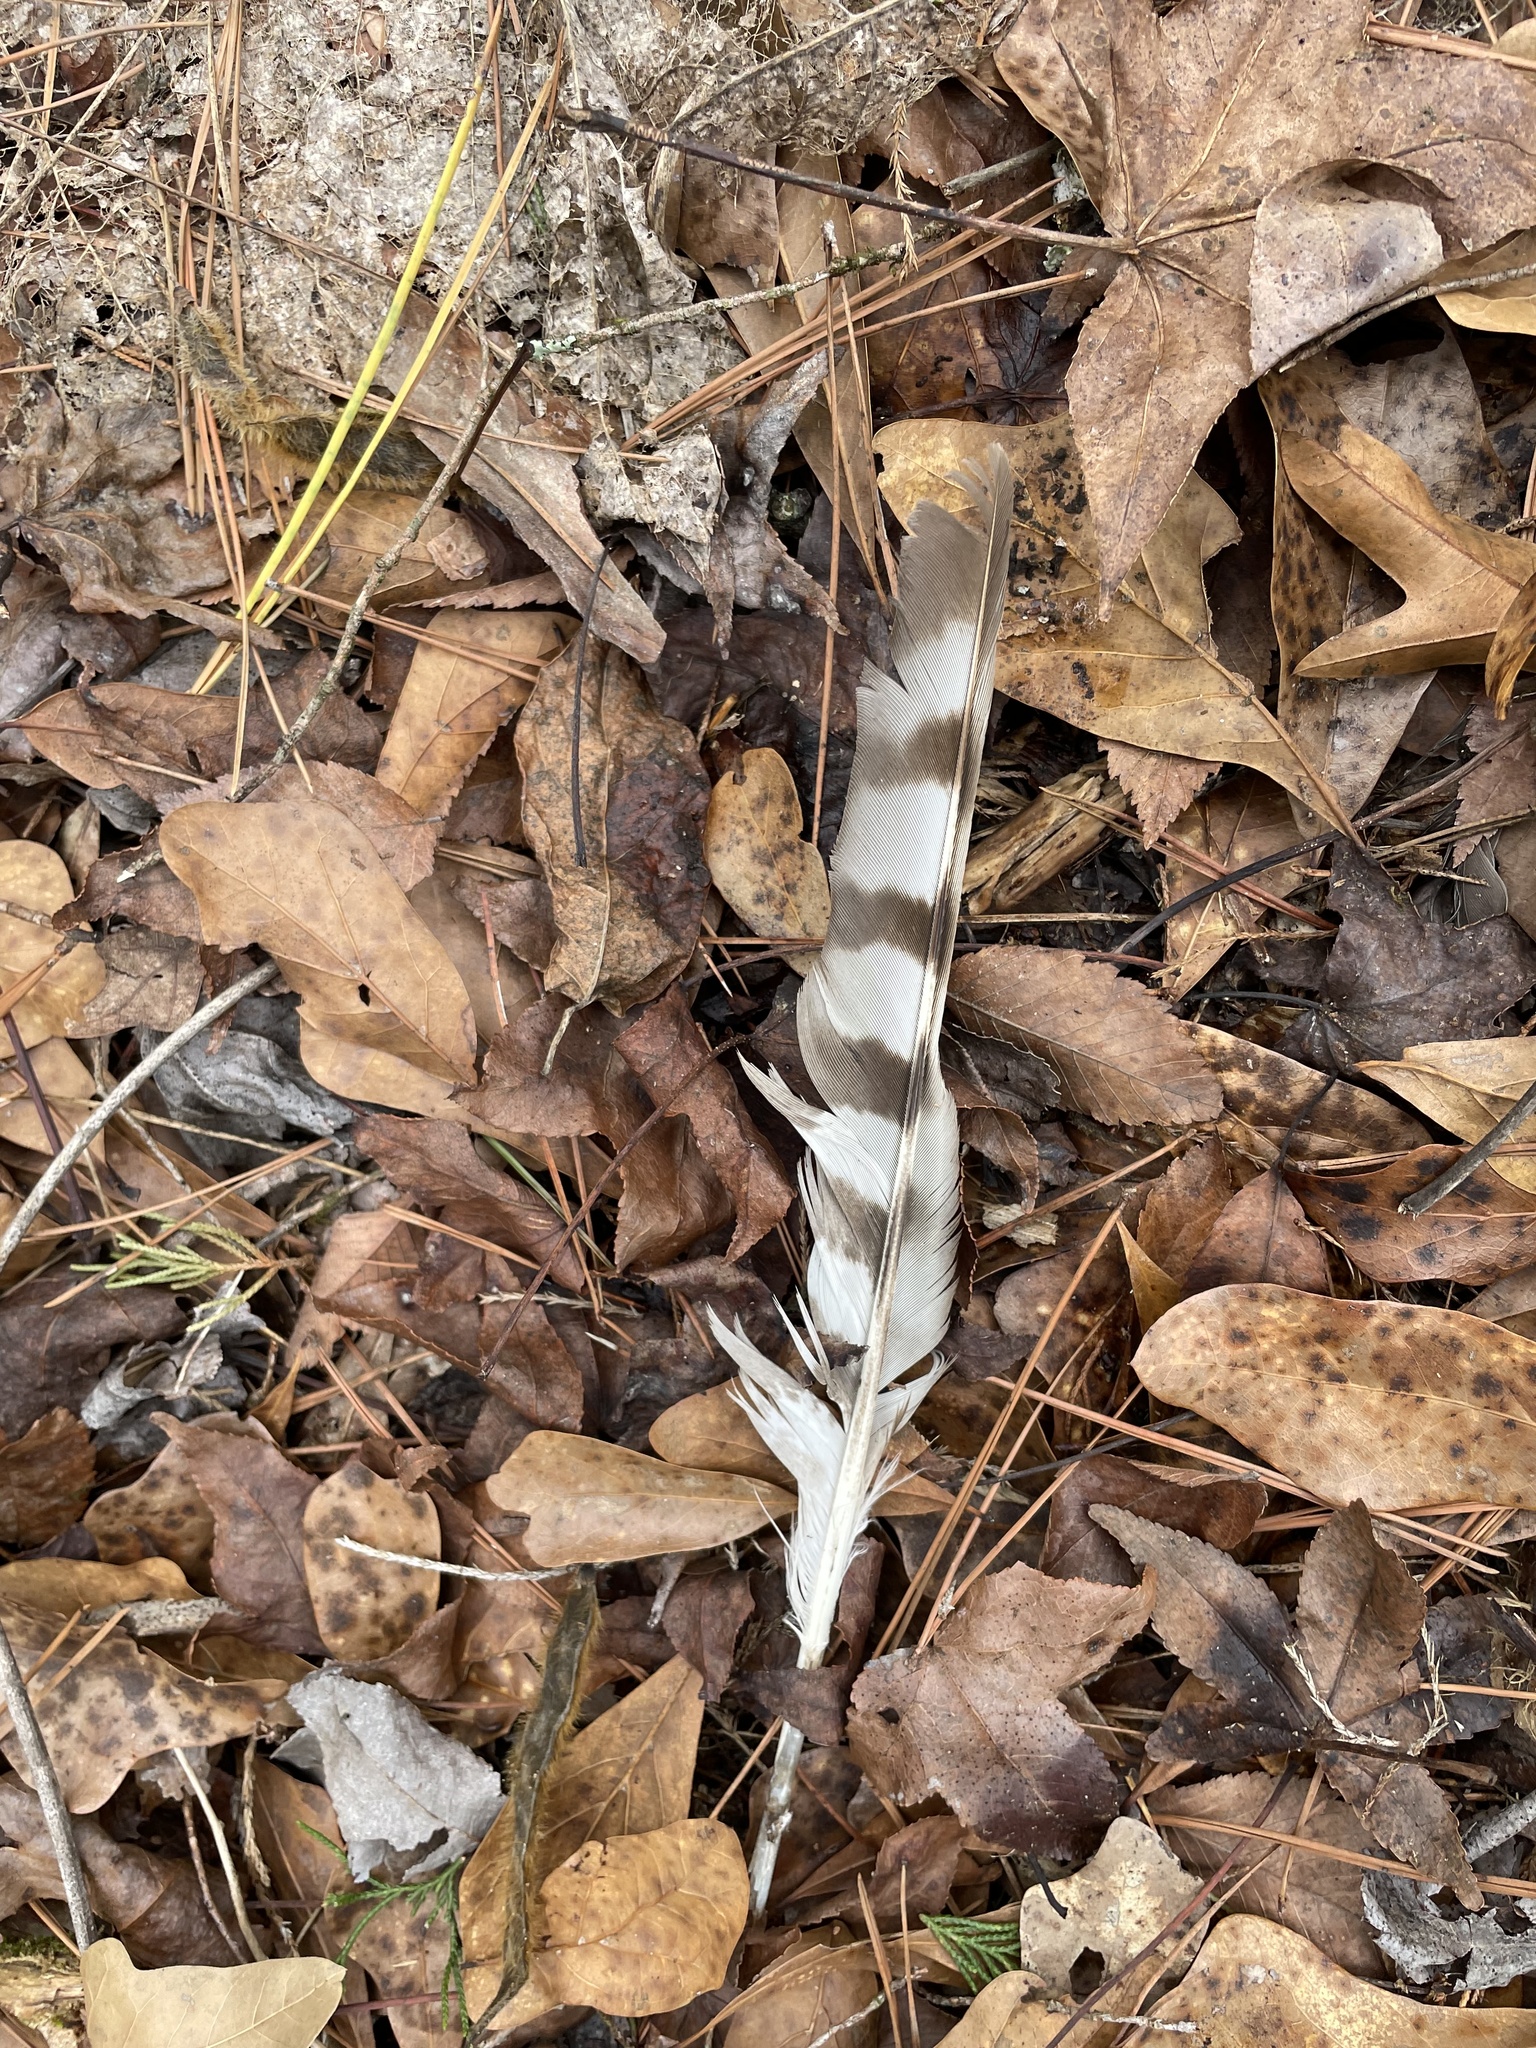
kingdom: Animalia
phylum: Chordata
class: Aves
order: Accipitriformes
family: Accipitridae
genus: Accipiter
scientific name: Accipiter cooperii
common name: Cooper's hawk
